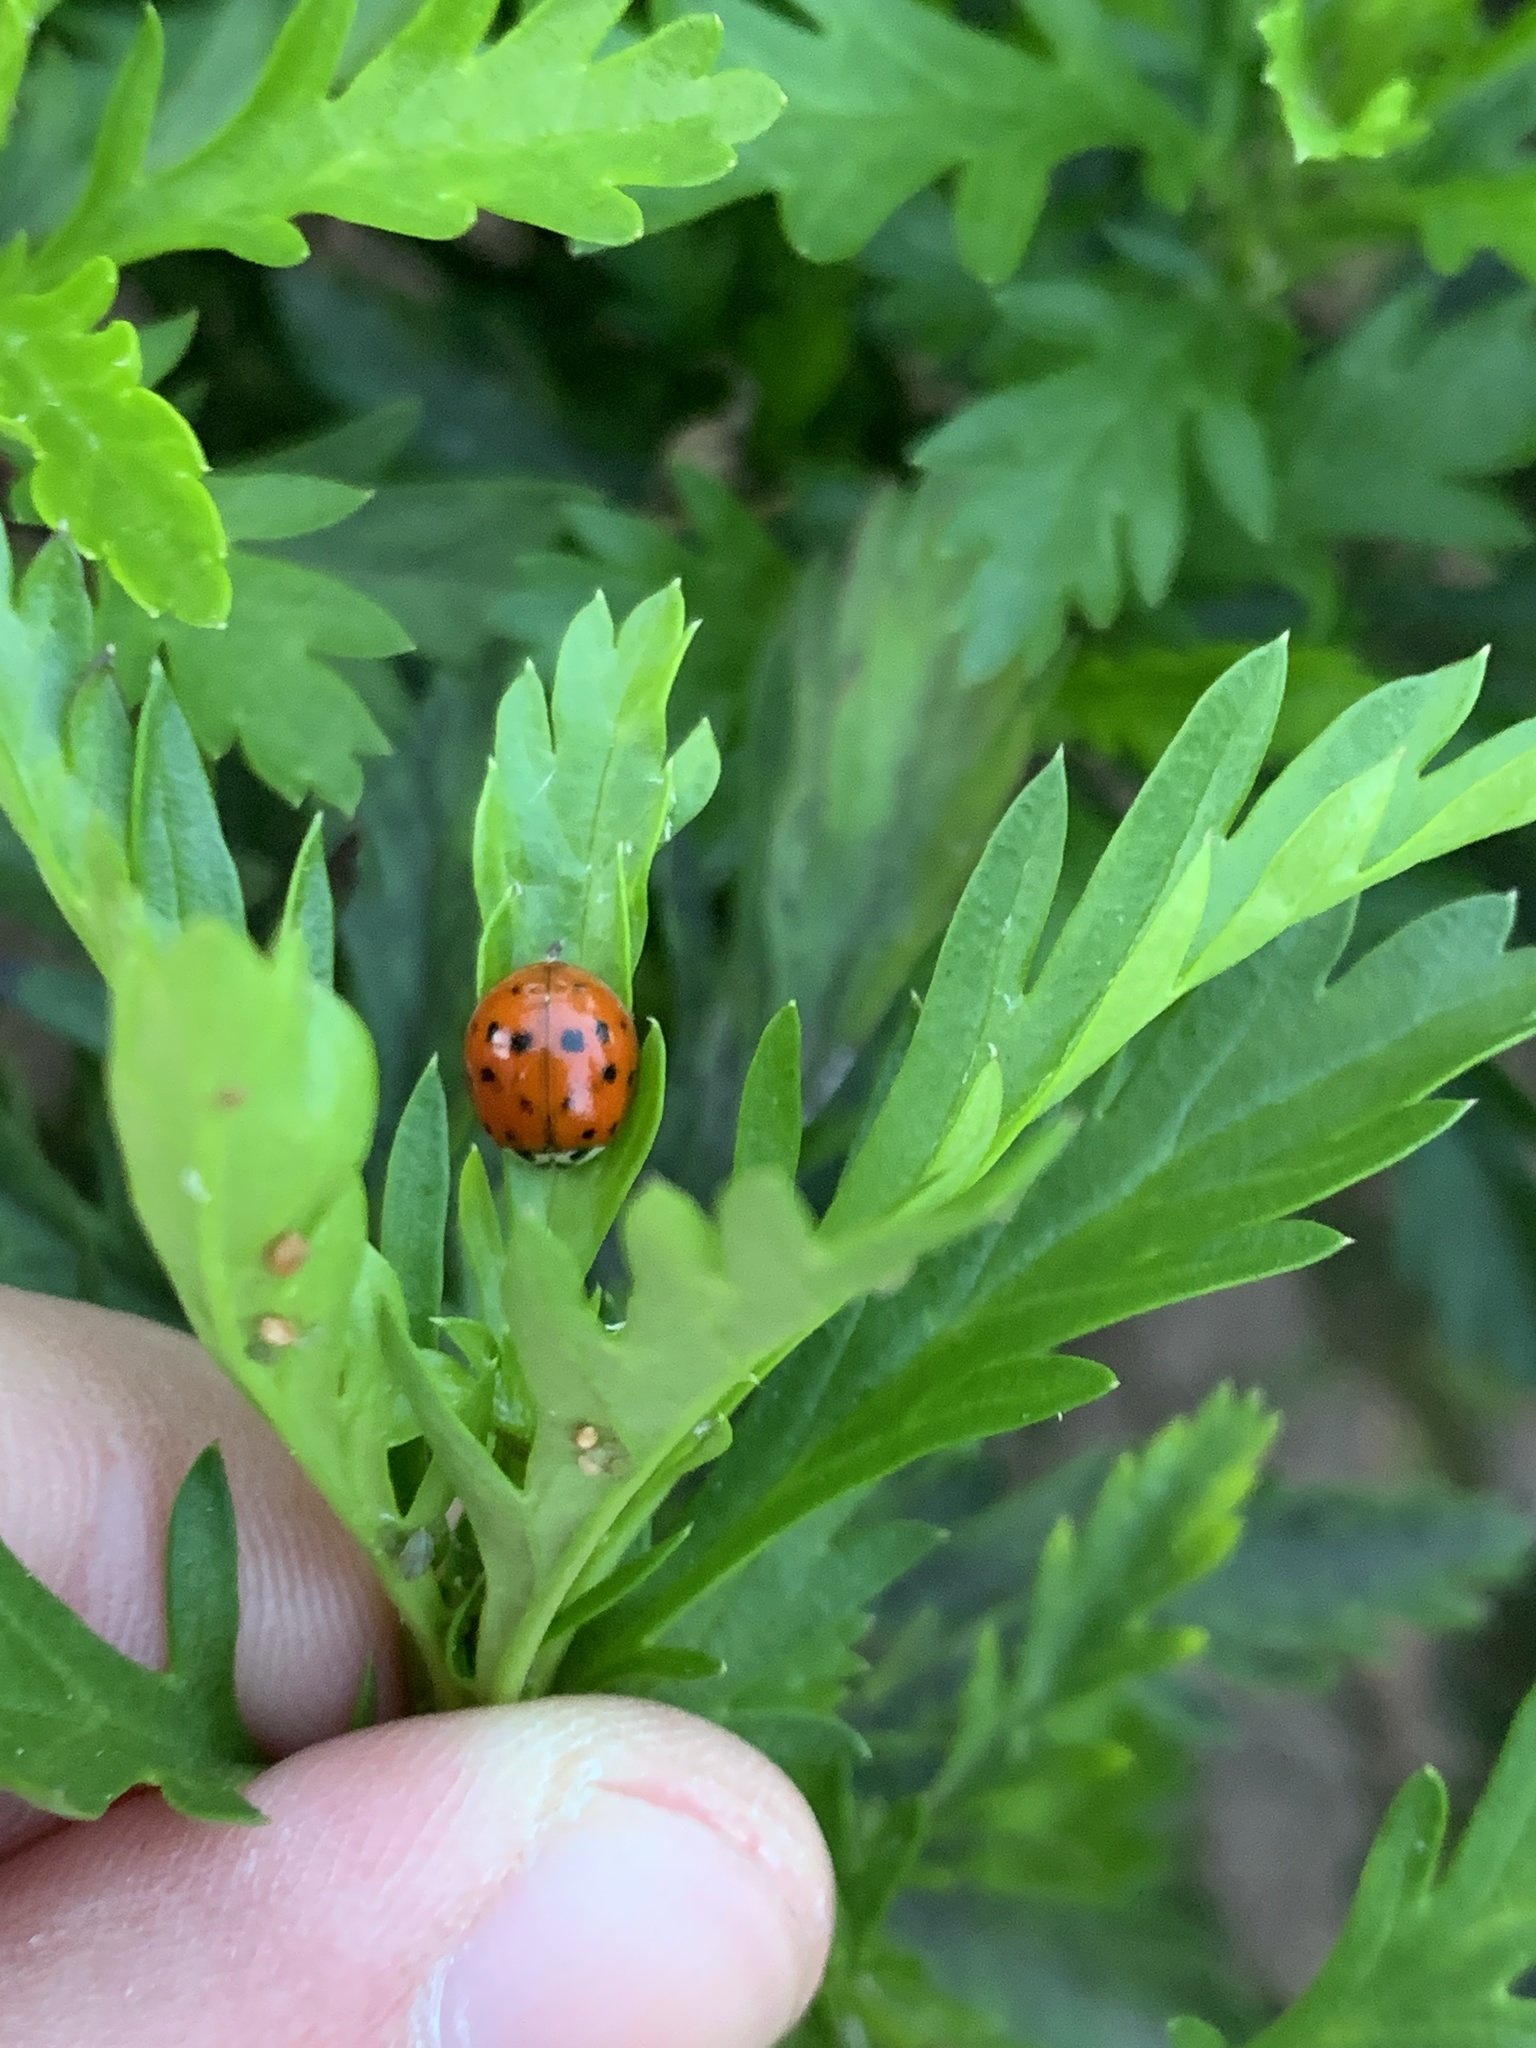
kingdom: Animalia
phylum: Arthropoda
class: Insecta
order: Coleoptera
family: Coccinellidae
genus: Harmonia
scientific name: Harmonia axyridis
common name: Harlequin ladybird
